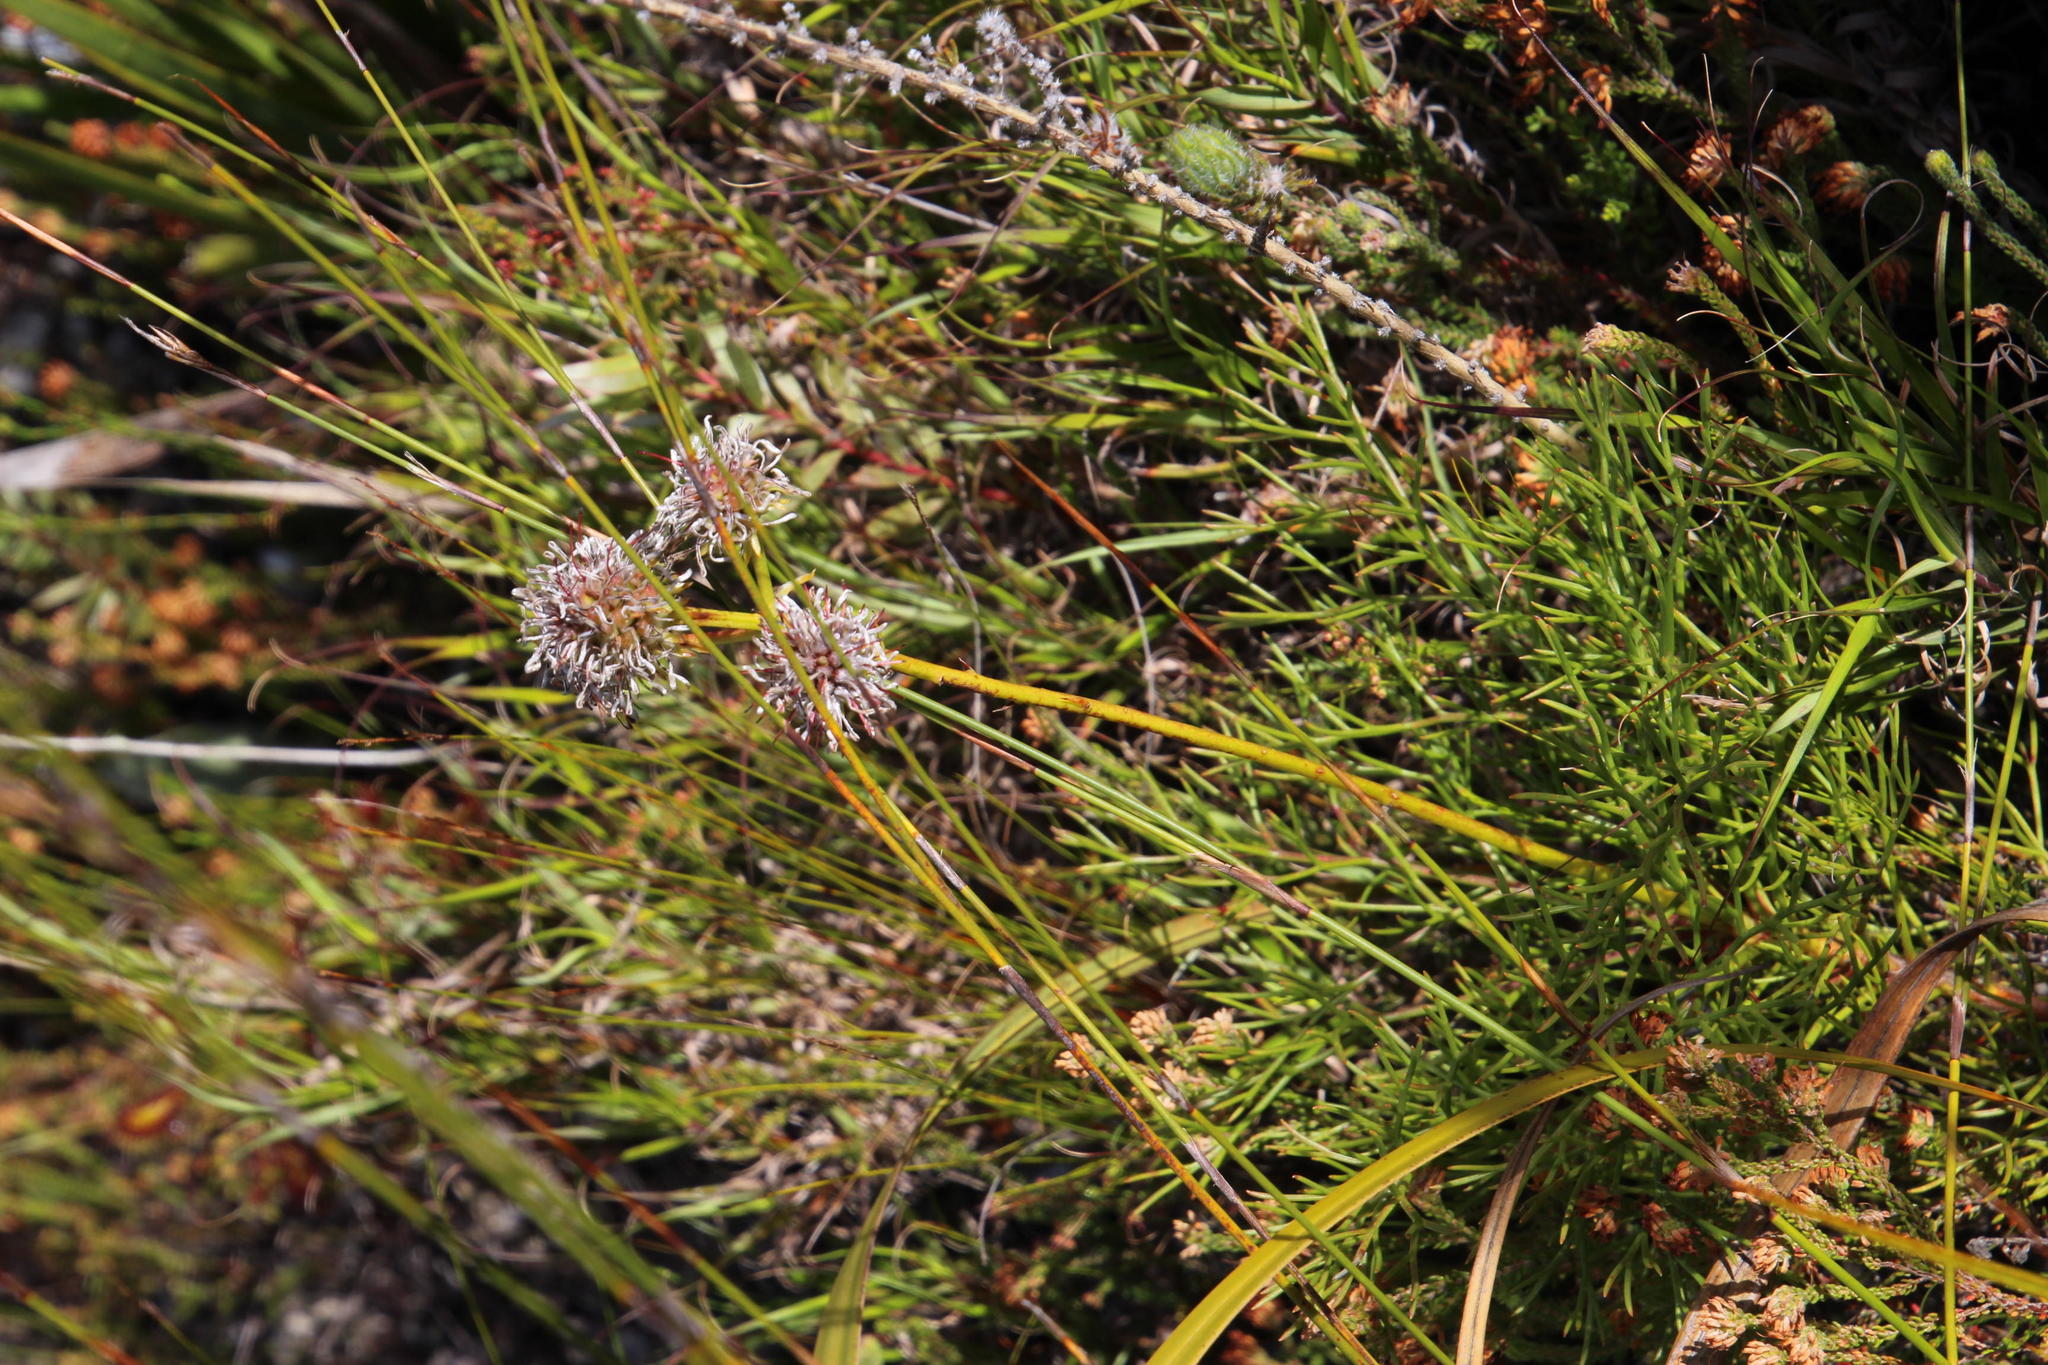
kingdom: Plantae
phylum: Tracheophyta
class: Magnoliopsida
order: Proteales
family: Proteaceae
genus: Serruria
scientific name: Serruria elongata
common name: Long-stalk spiderhead
